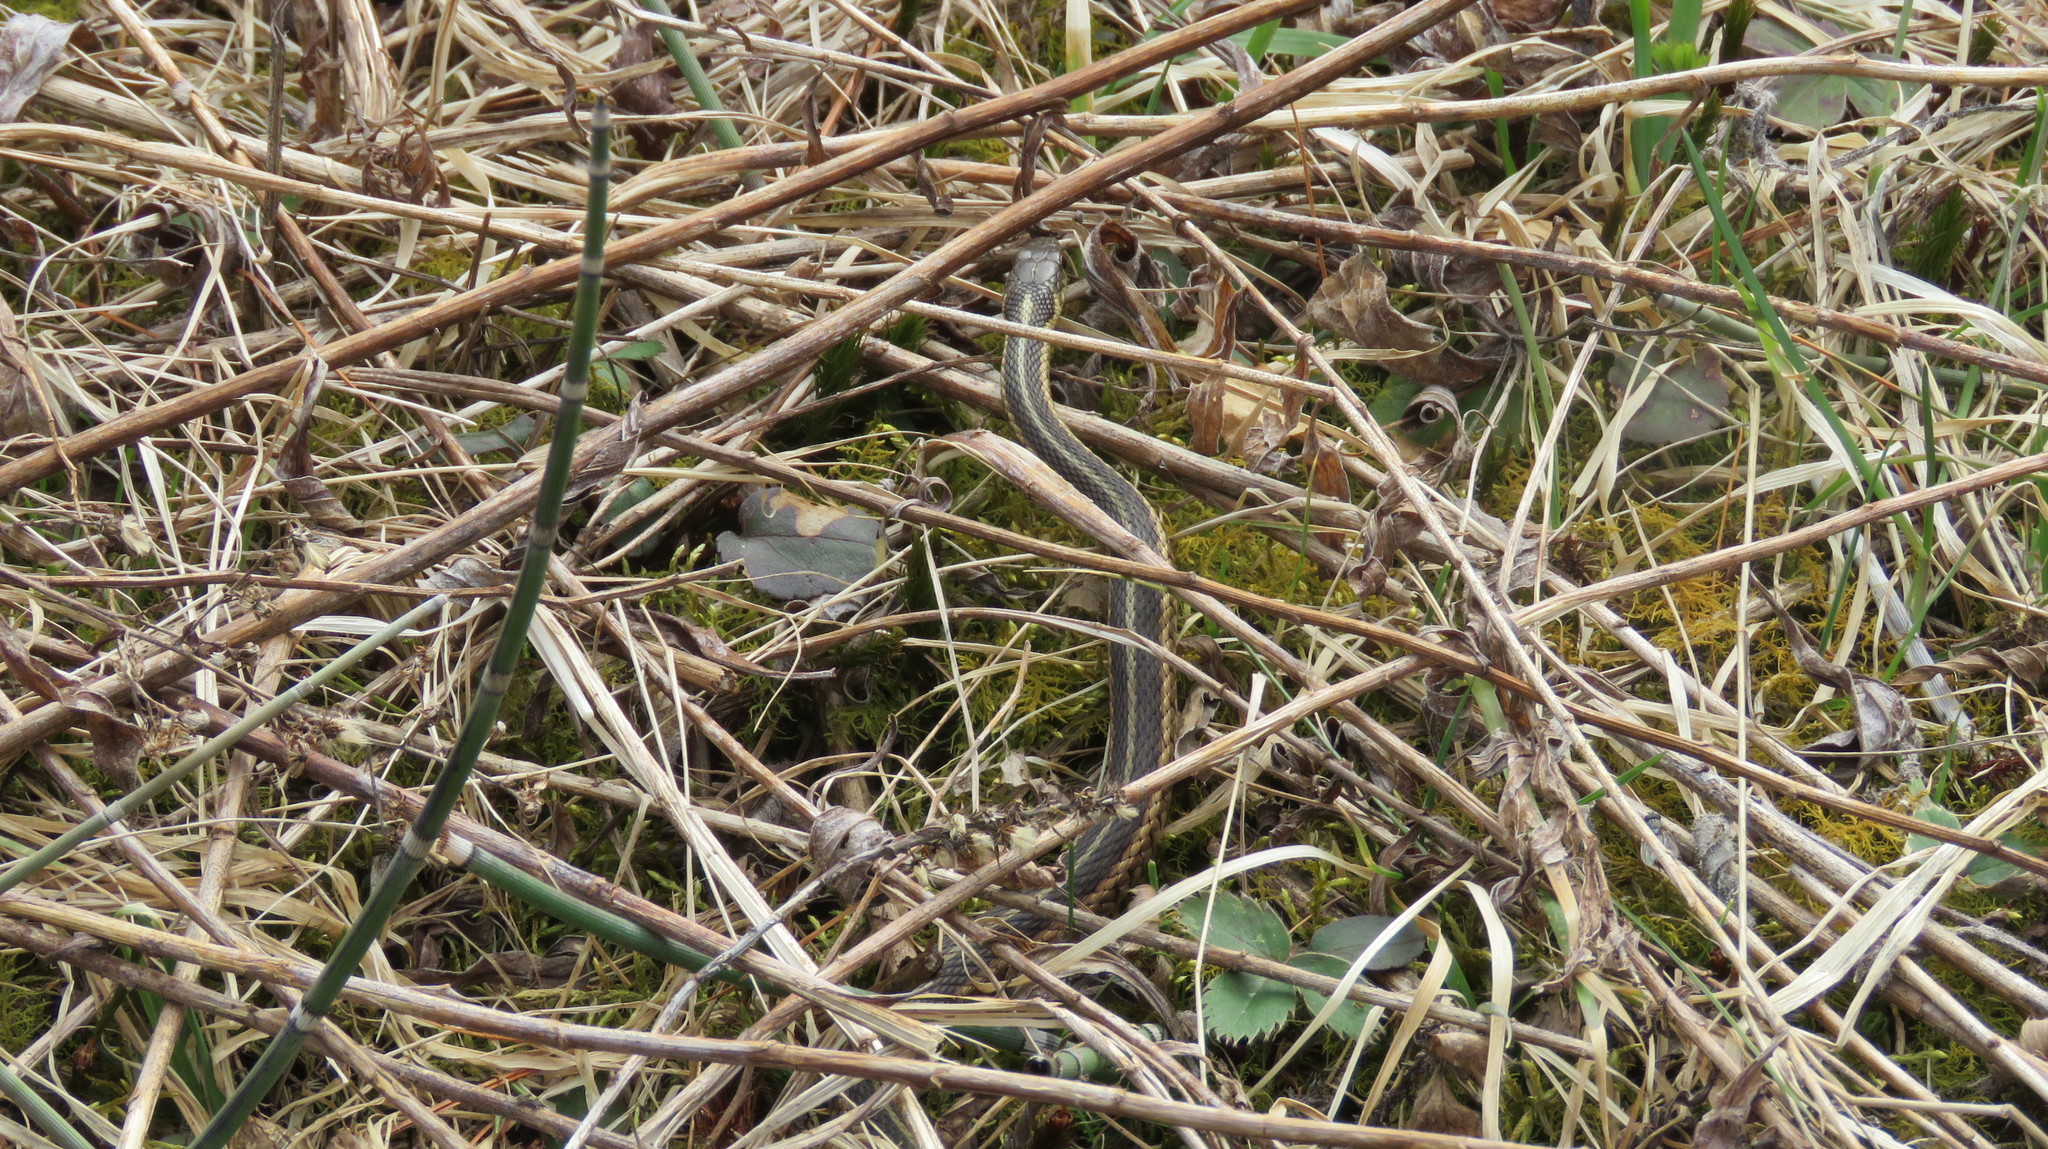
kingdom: Animalia
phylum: Chordata
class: Squamata
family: Colubridae
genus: Thamnophis
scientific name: Thamnophis sirtalis
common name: Common garter snake
